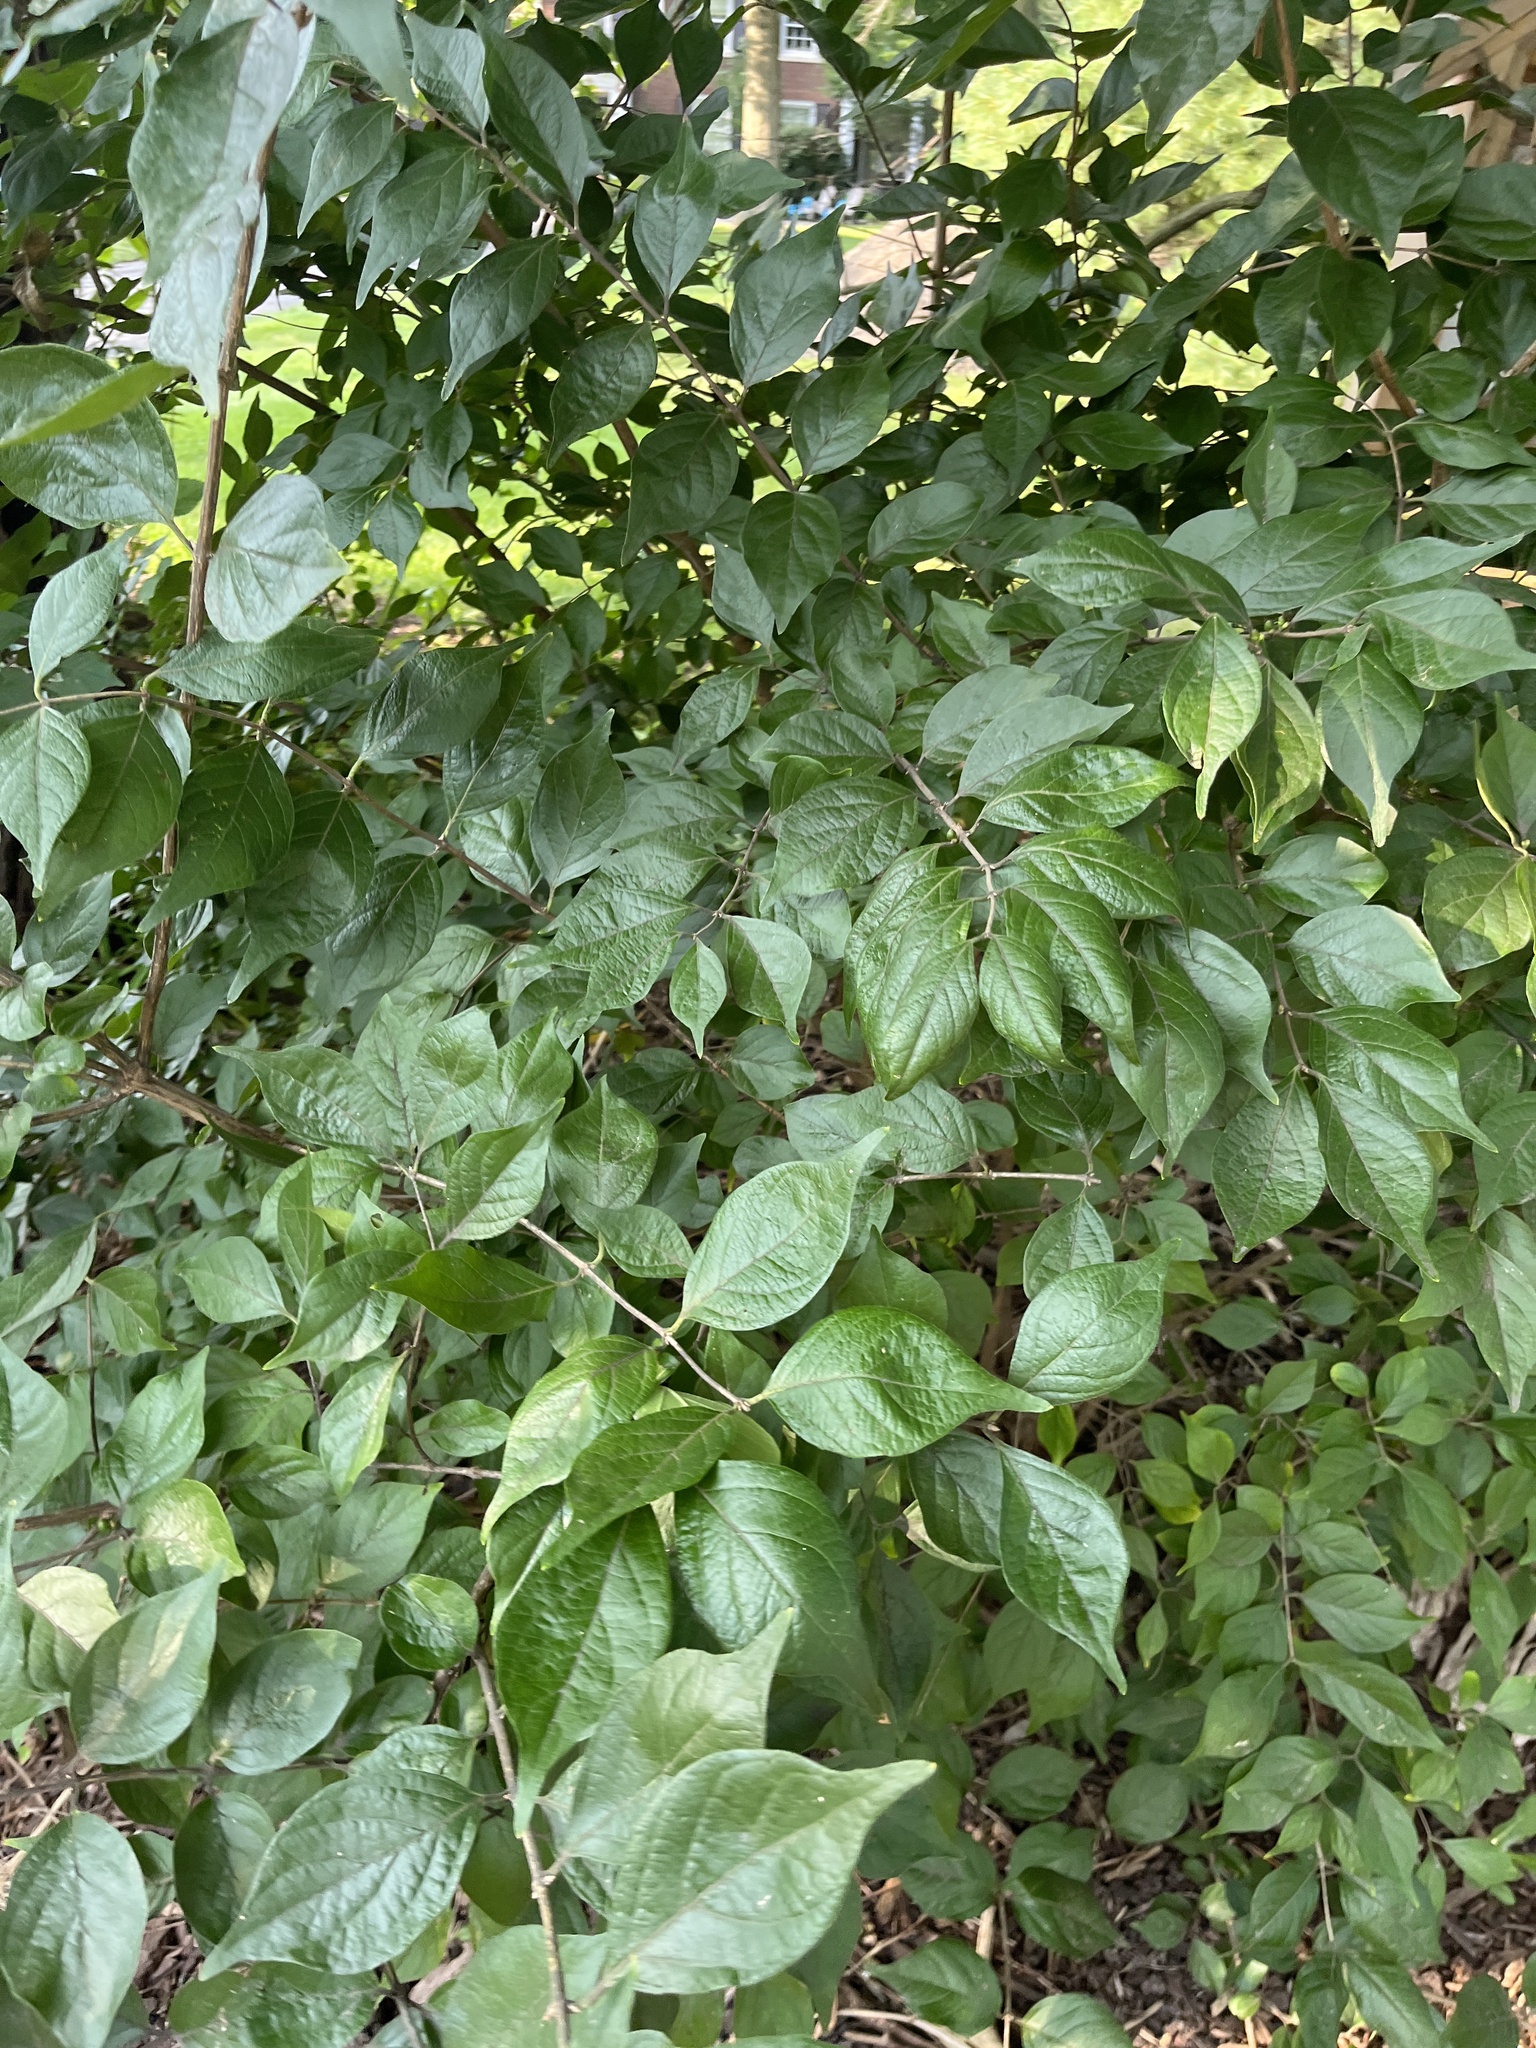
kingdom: Plantae
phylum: Tracheophyta
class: Magnoliopsida
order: Dipsacales
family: Caprifoliaceae
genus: Lonicera
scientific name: Lonicera maackii
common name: Amur honeysuckle
